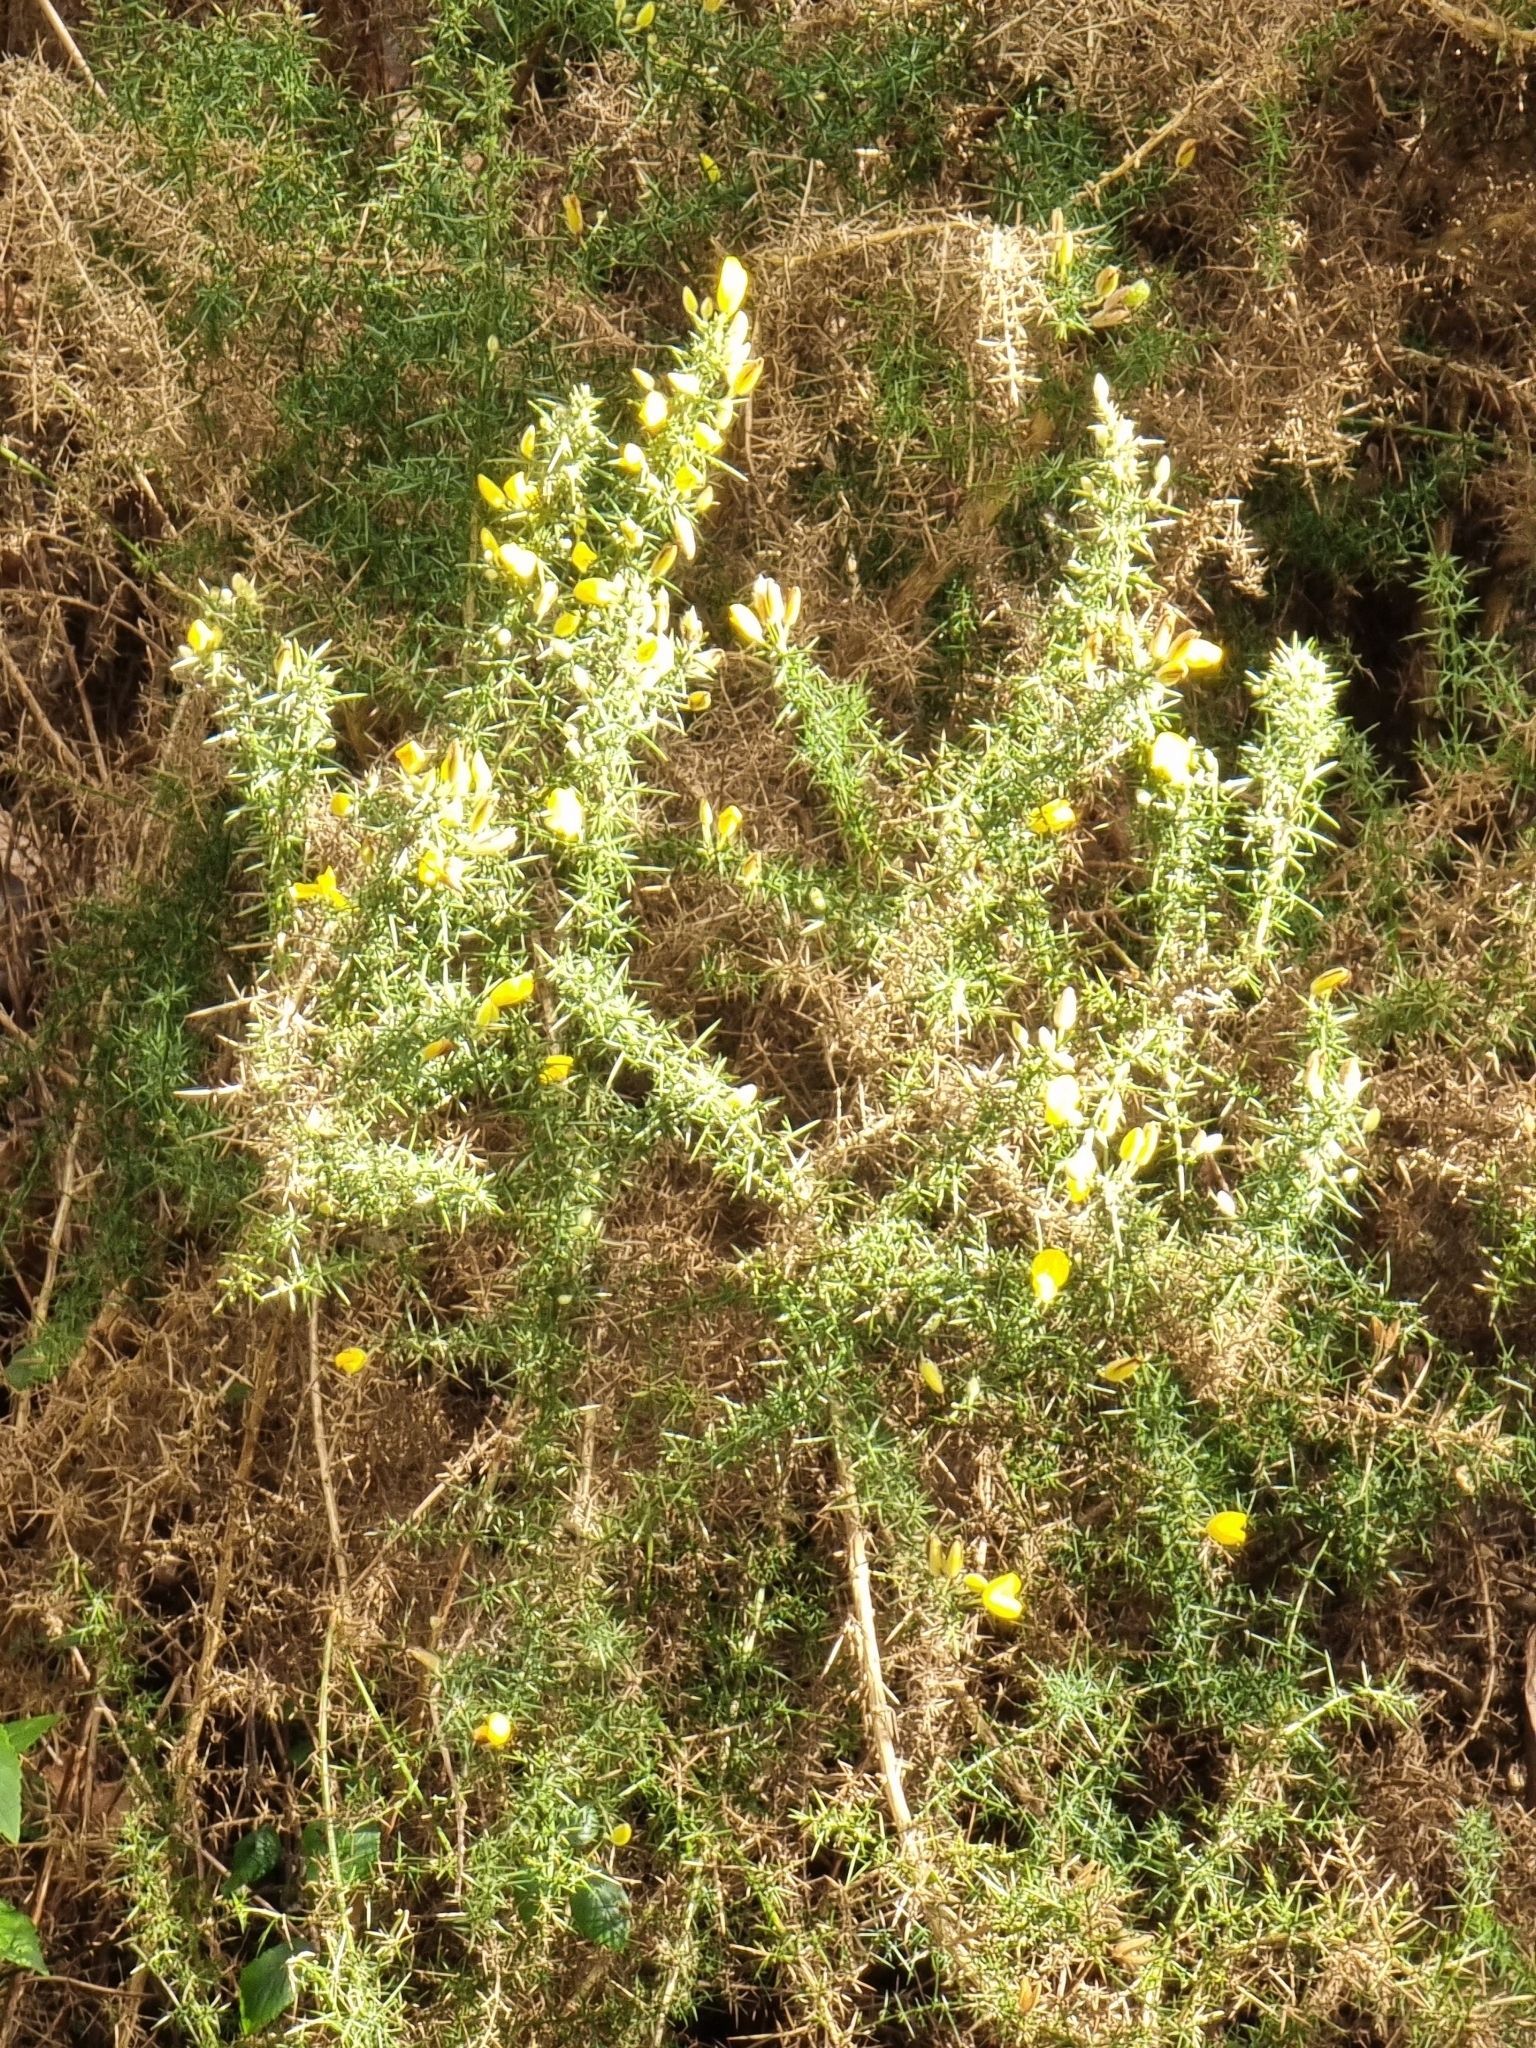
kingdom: Plantae
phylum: Tracheophyta
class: Magnoliopsida
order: Fabales
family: Fabaceae
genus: Ulex
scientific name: Ulex europaeus
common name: Common gorse
